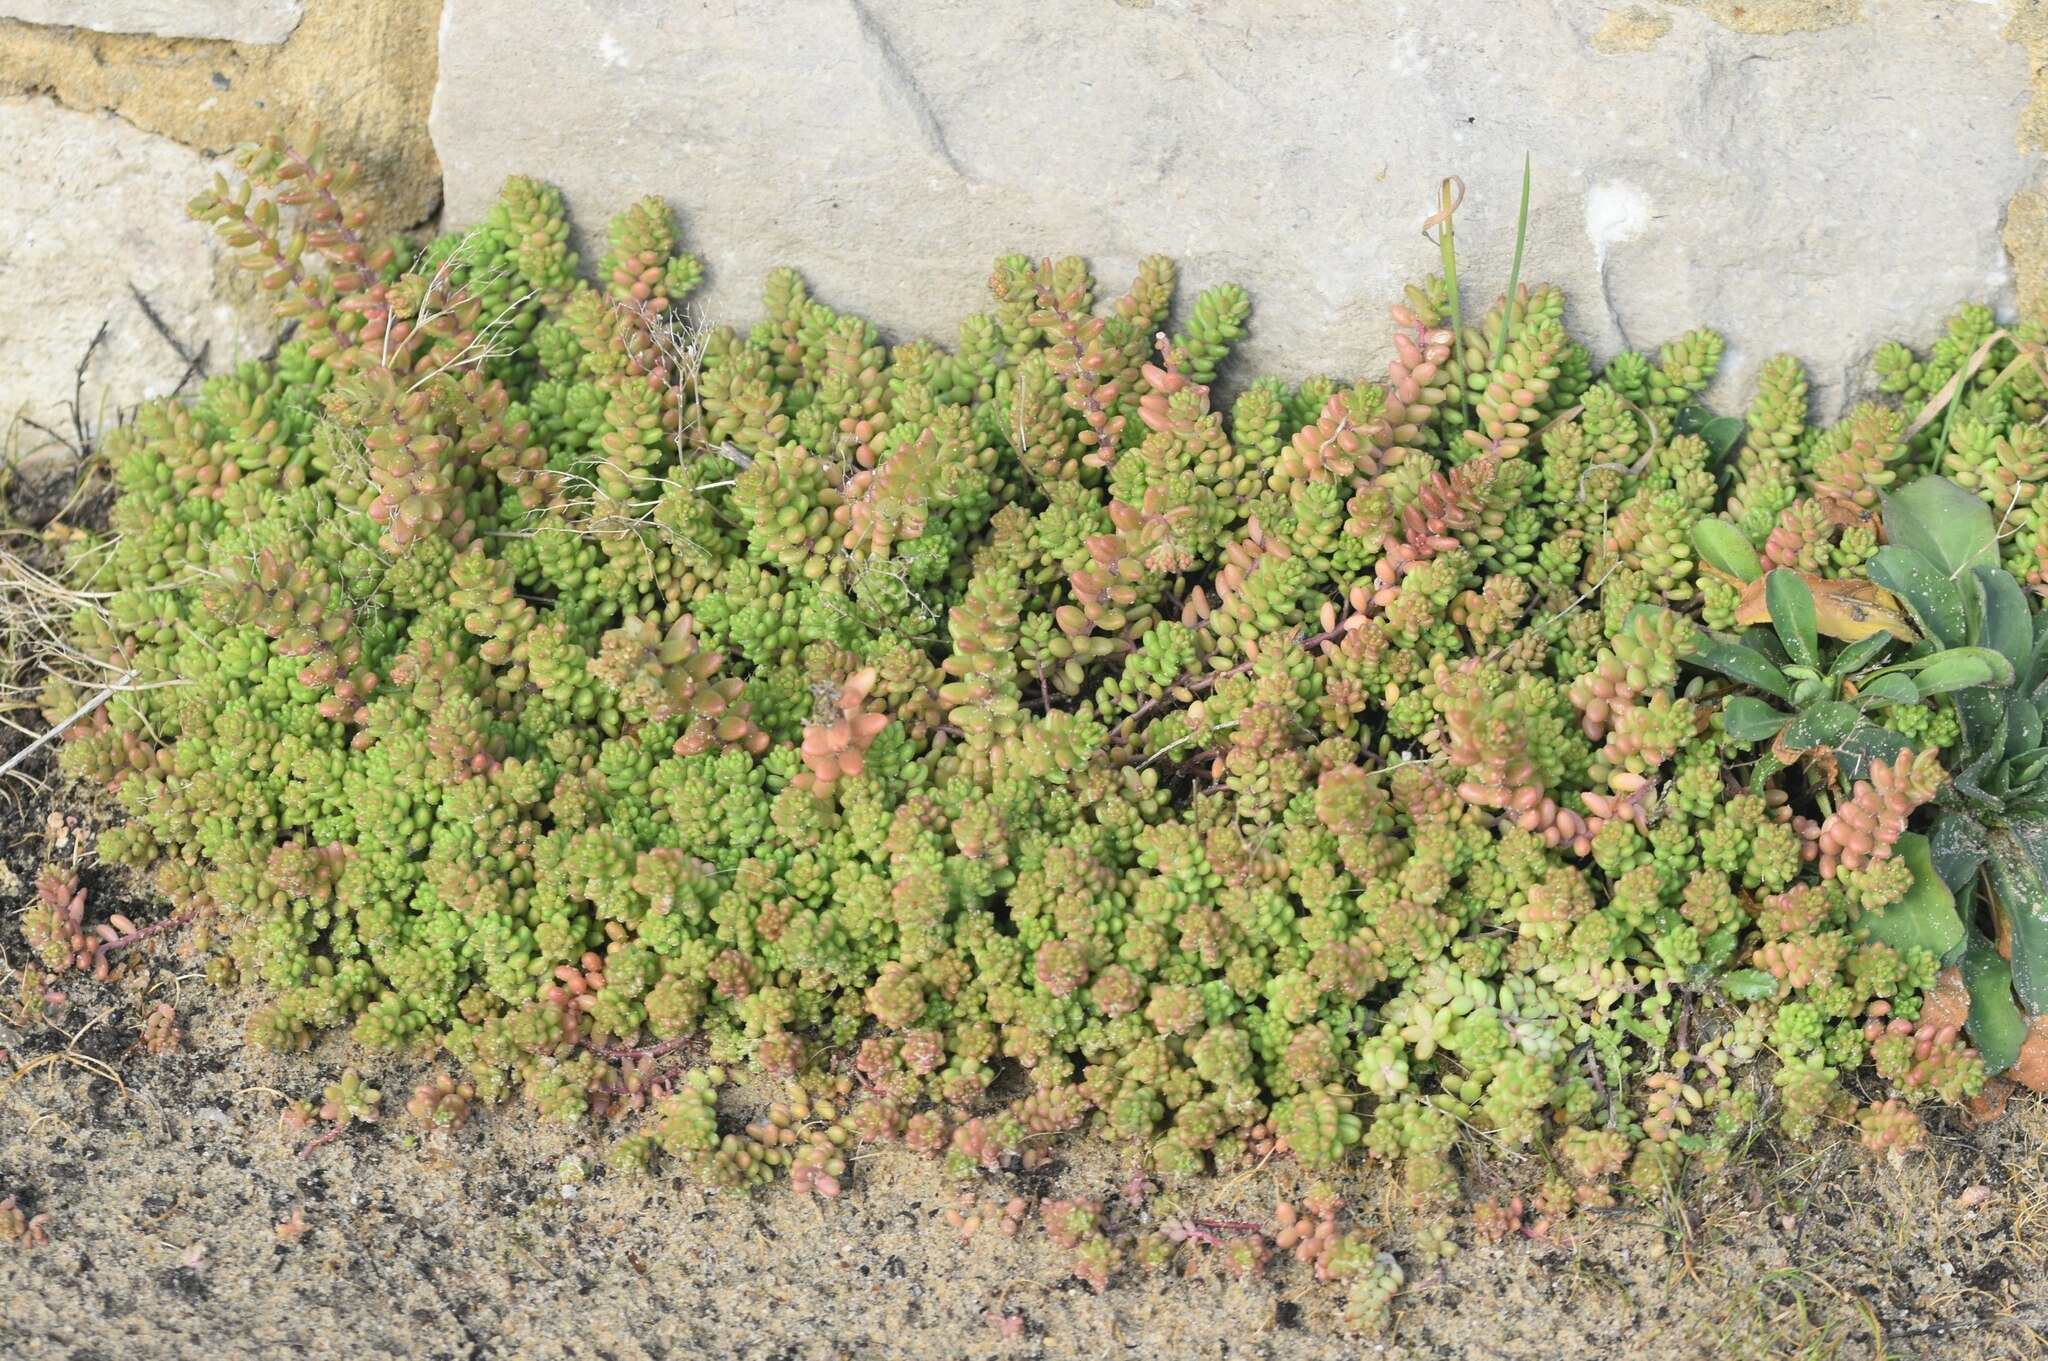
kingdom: Plantae
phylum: Tracheophyta
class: Magnoliopsida
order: Saxifragales
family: Crassulaceae
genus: Sedum
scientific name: Sedum album
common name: White stonecrop
